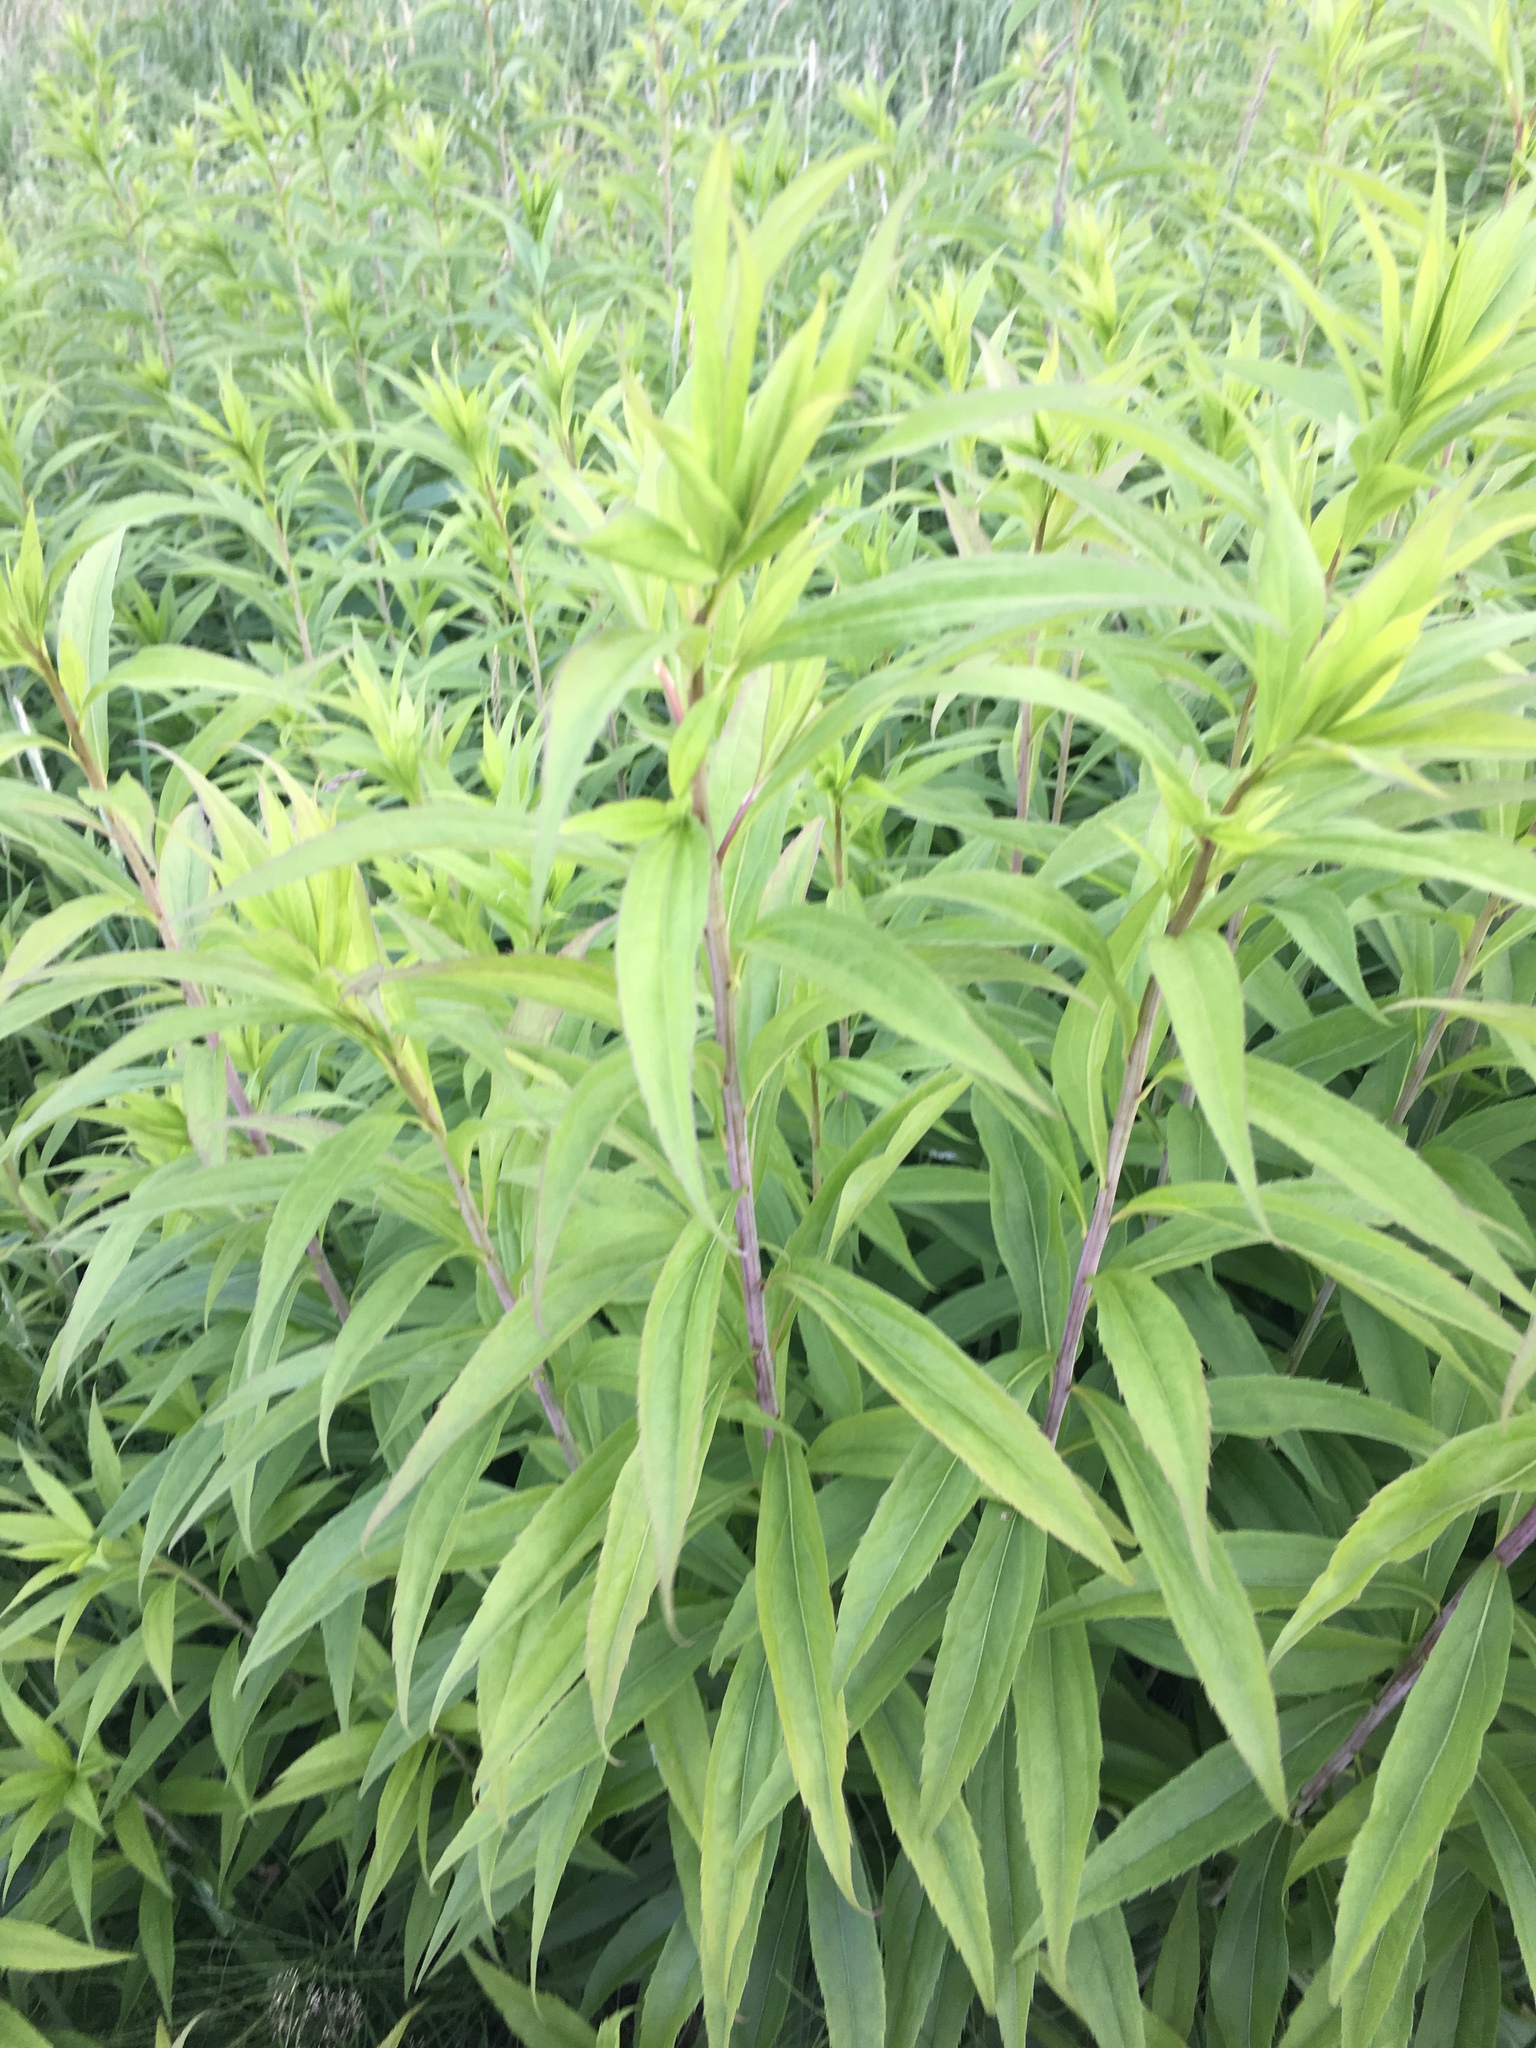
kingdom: Plantae
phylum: Tracheophyta
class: Magnoliopsida
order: Asterales
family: Asteraceae
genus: Solidago
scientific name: Solidago gigantea
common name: Giant goldenrod
